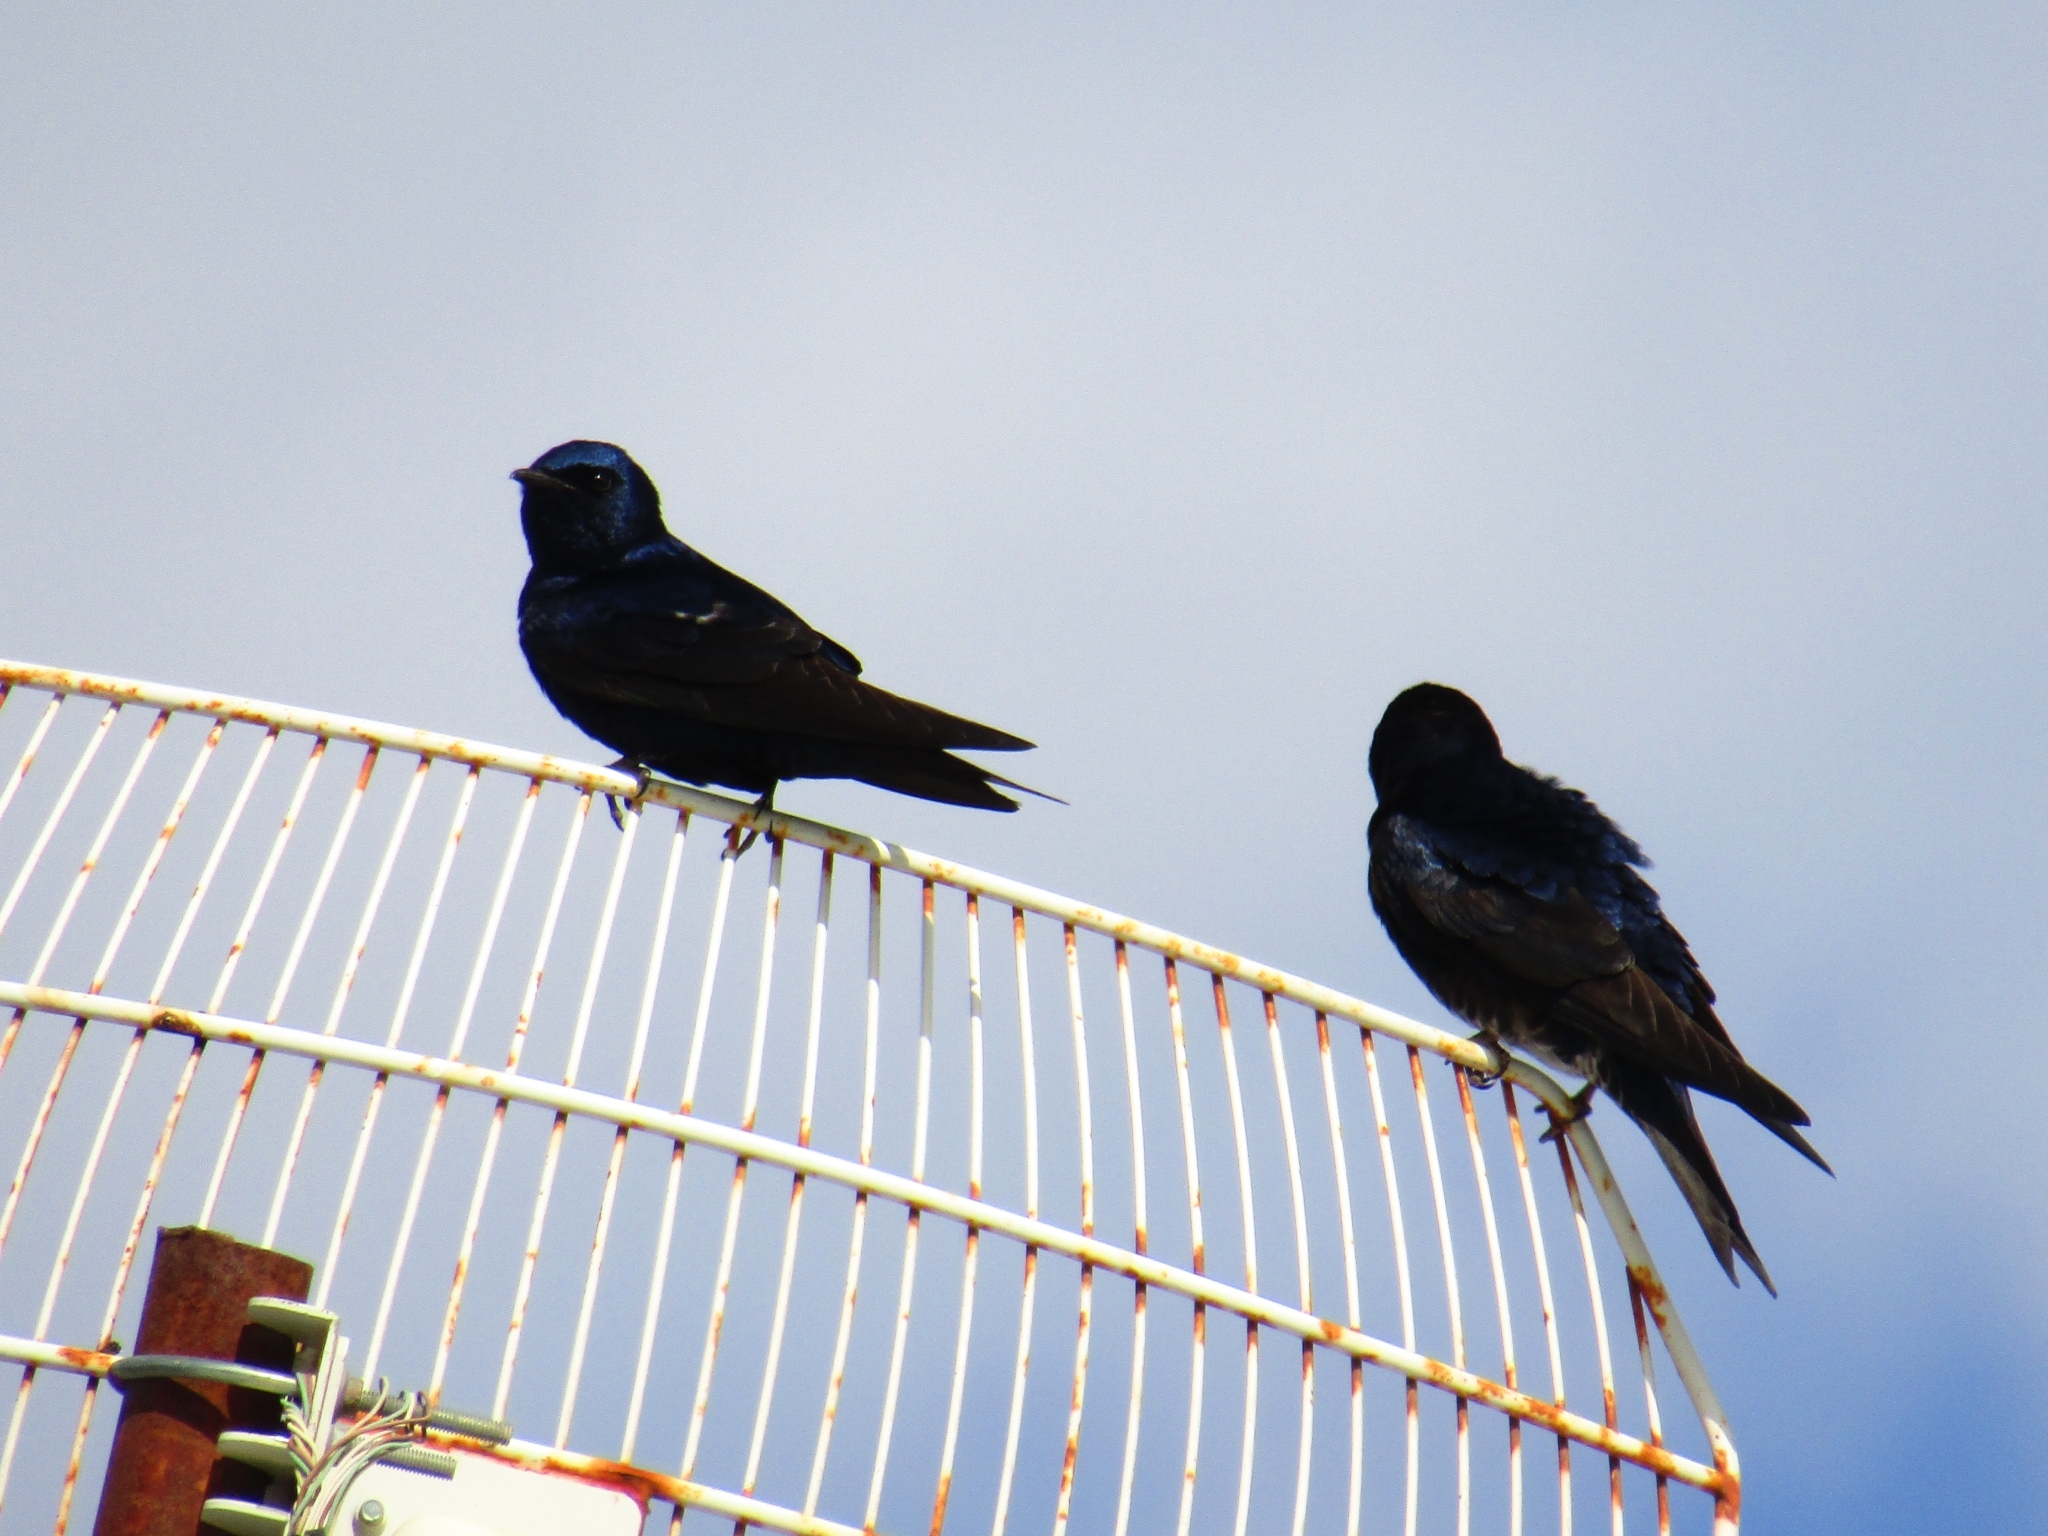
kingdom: Animalia
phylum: Chordata
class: Aves
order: Passeriformes
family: Hirundinidae
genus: Progne
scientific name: Progne elegans
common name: Southern martin
